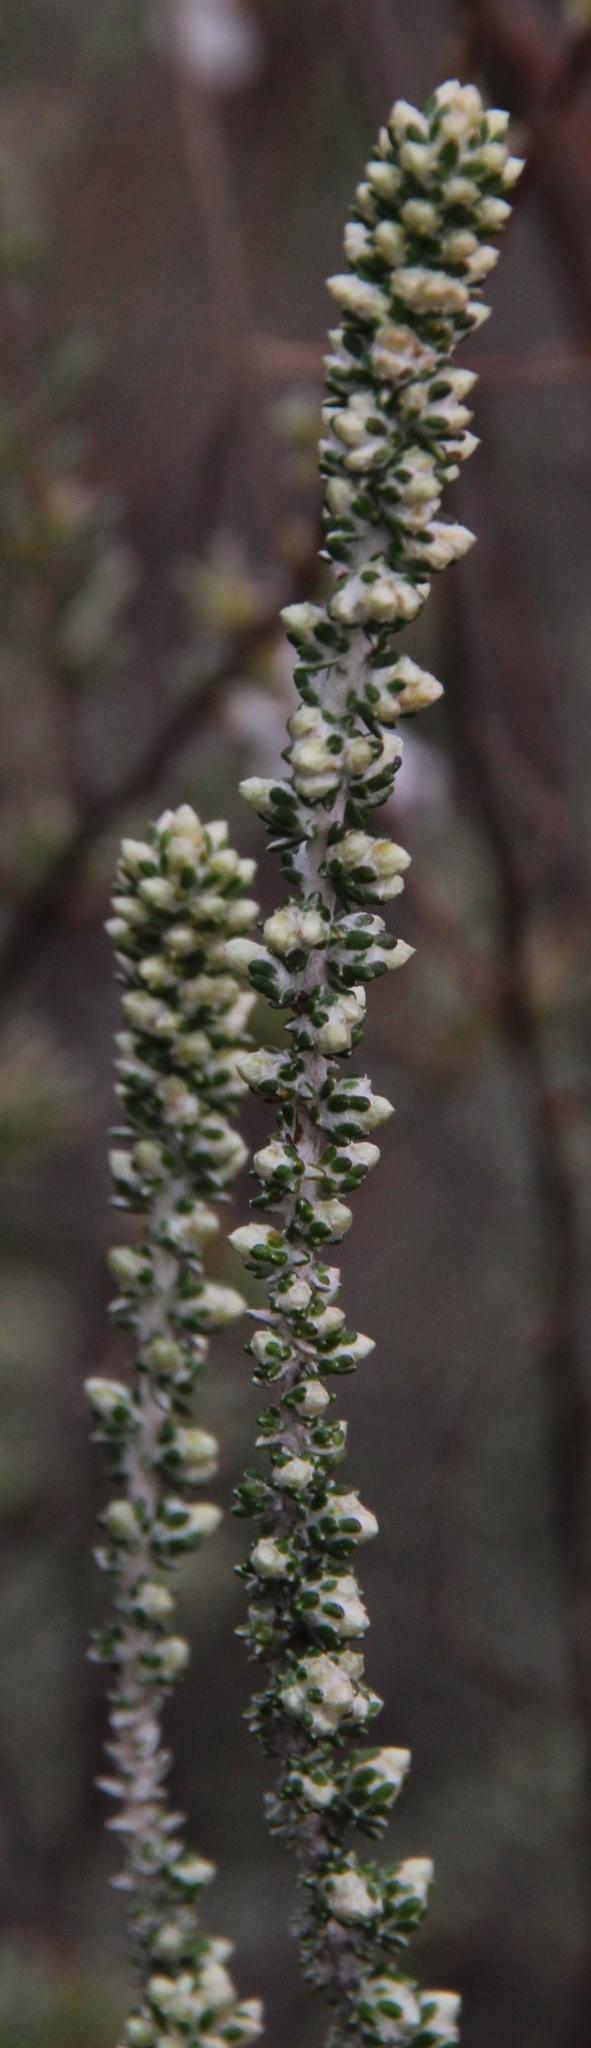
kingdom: Plantae
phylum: Tracheophyta
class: Magnoliopsida
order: Asterales
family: Asteraceae
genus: Ifloga
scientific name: Ifloga ambigua
